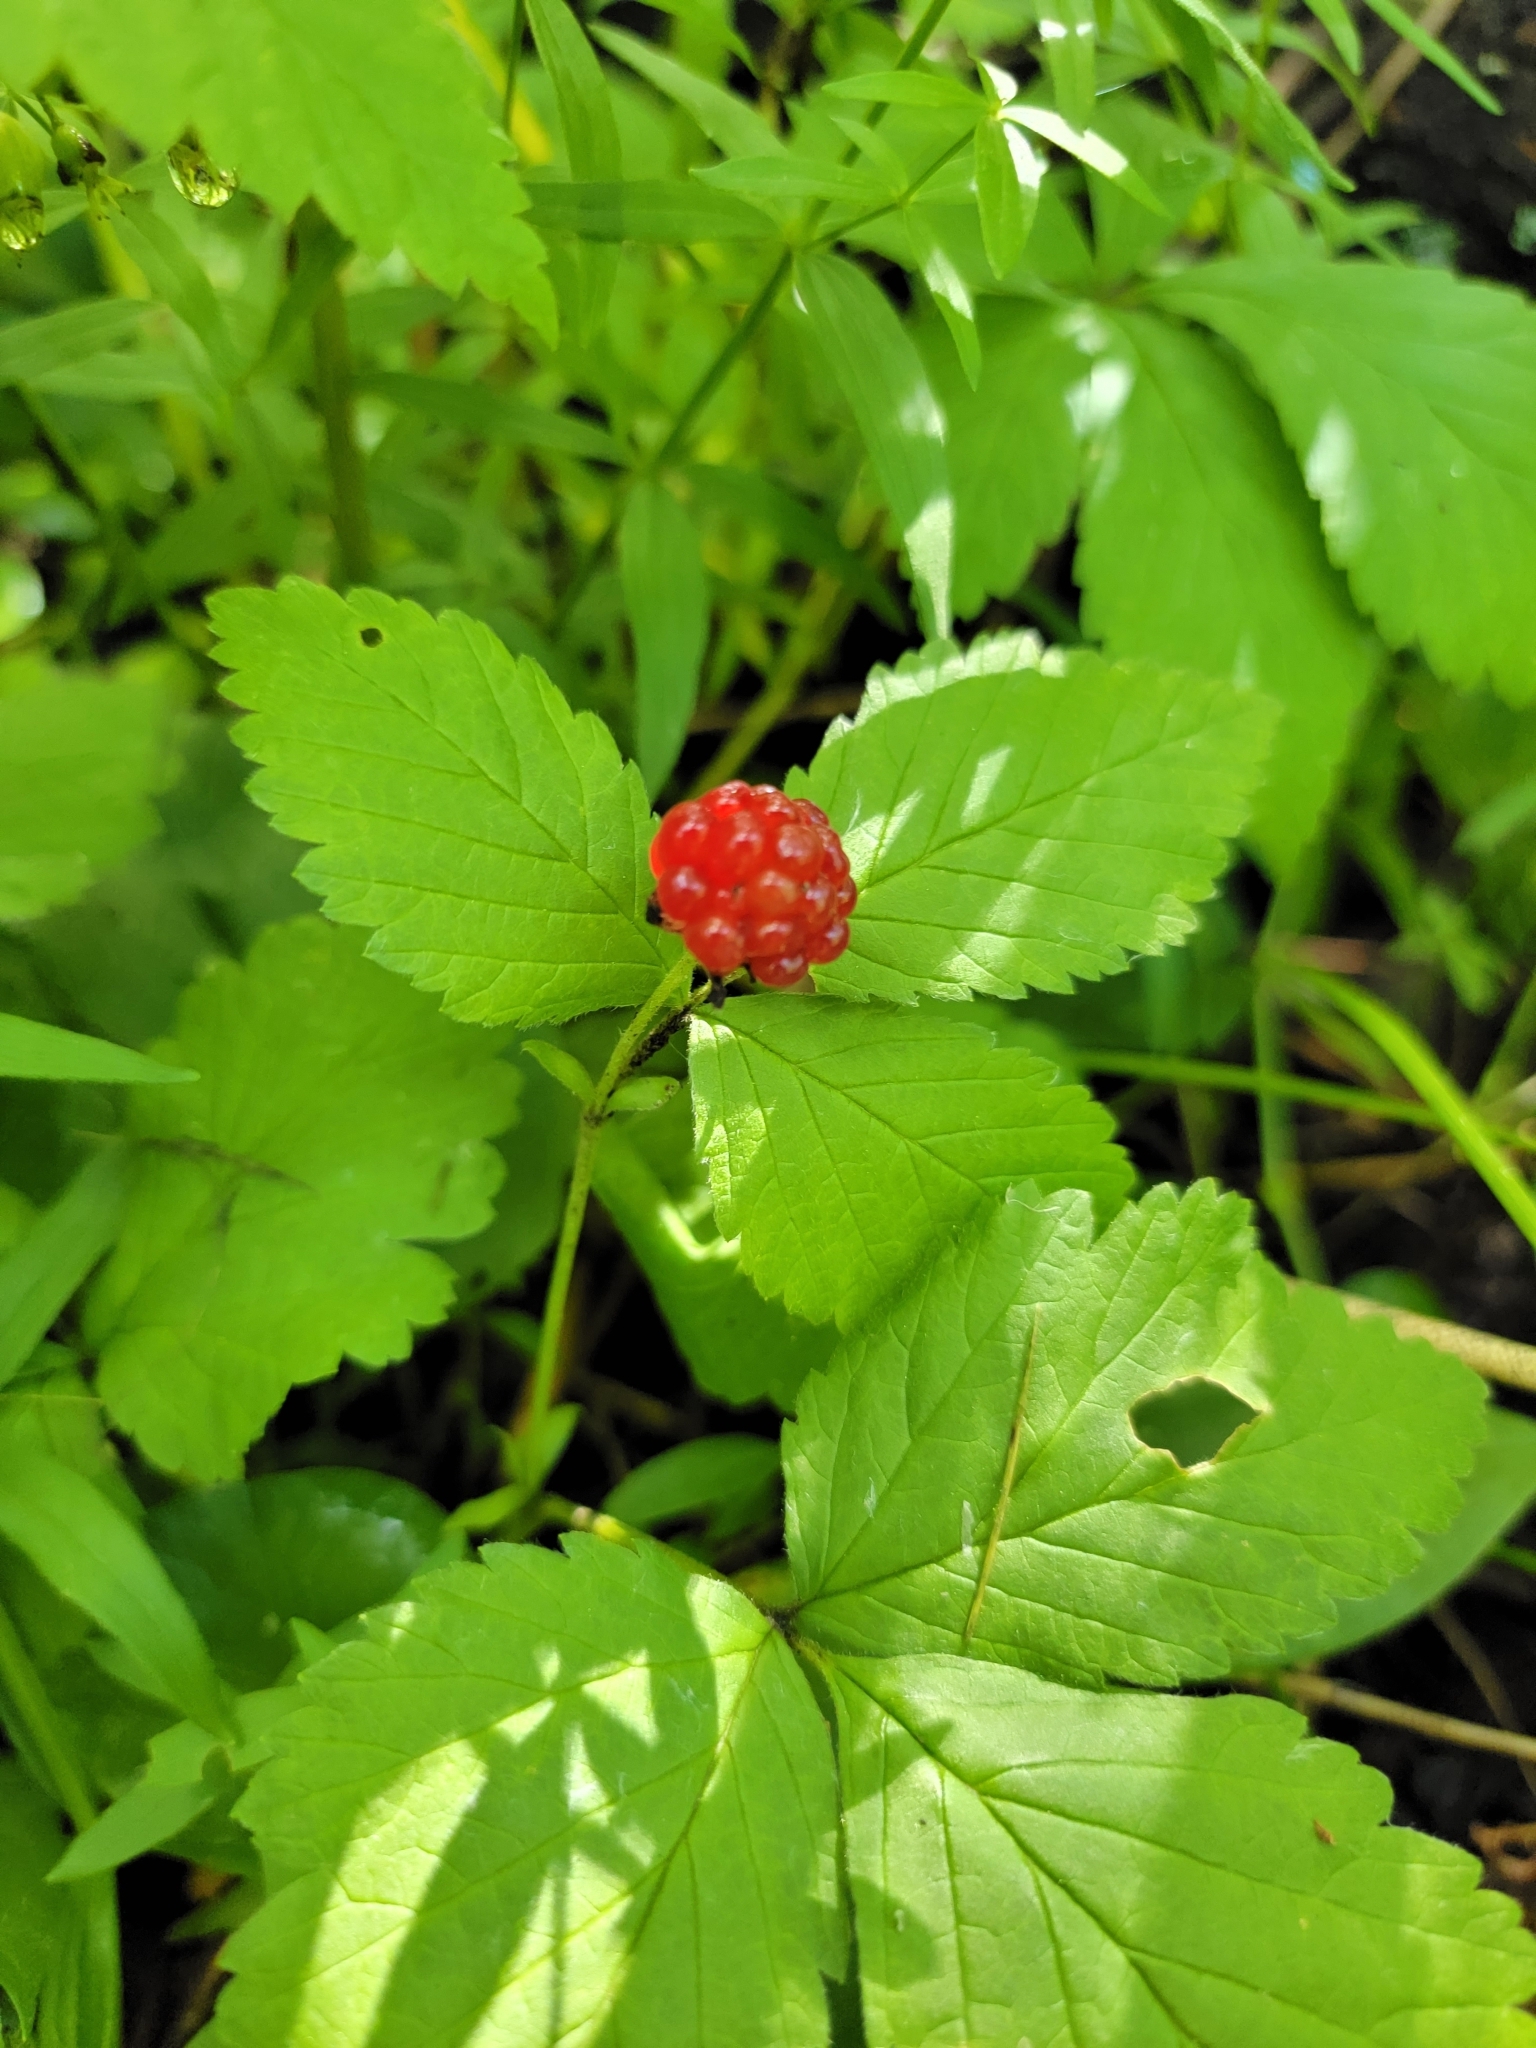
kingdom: Plantae
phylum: Tracheophyta
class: Magnoliopsida
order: Rosales
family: Rosaceae
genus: Rubus
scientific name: Rubus pubescens
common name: Dwarf raspberry
